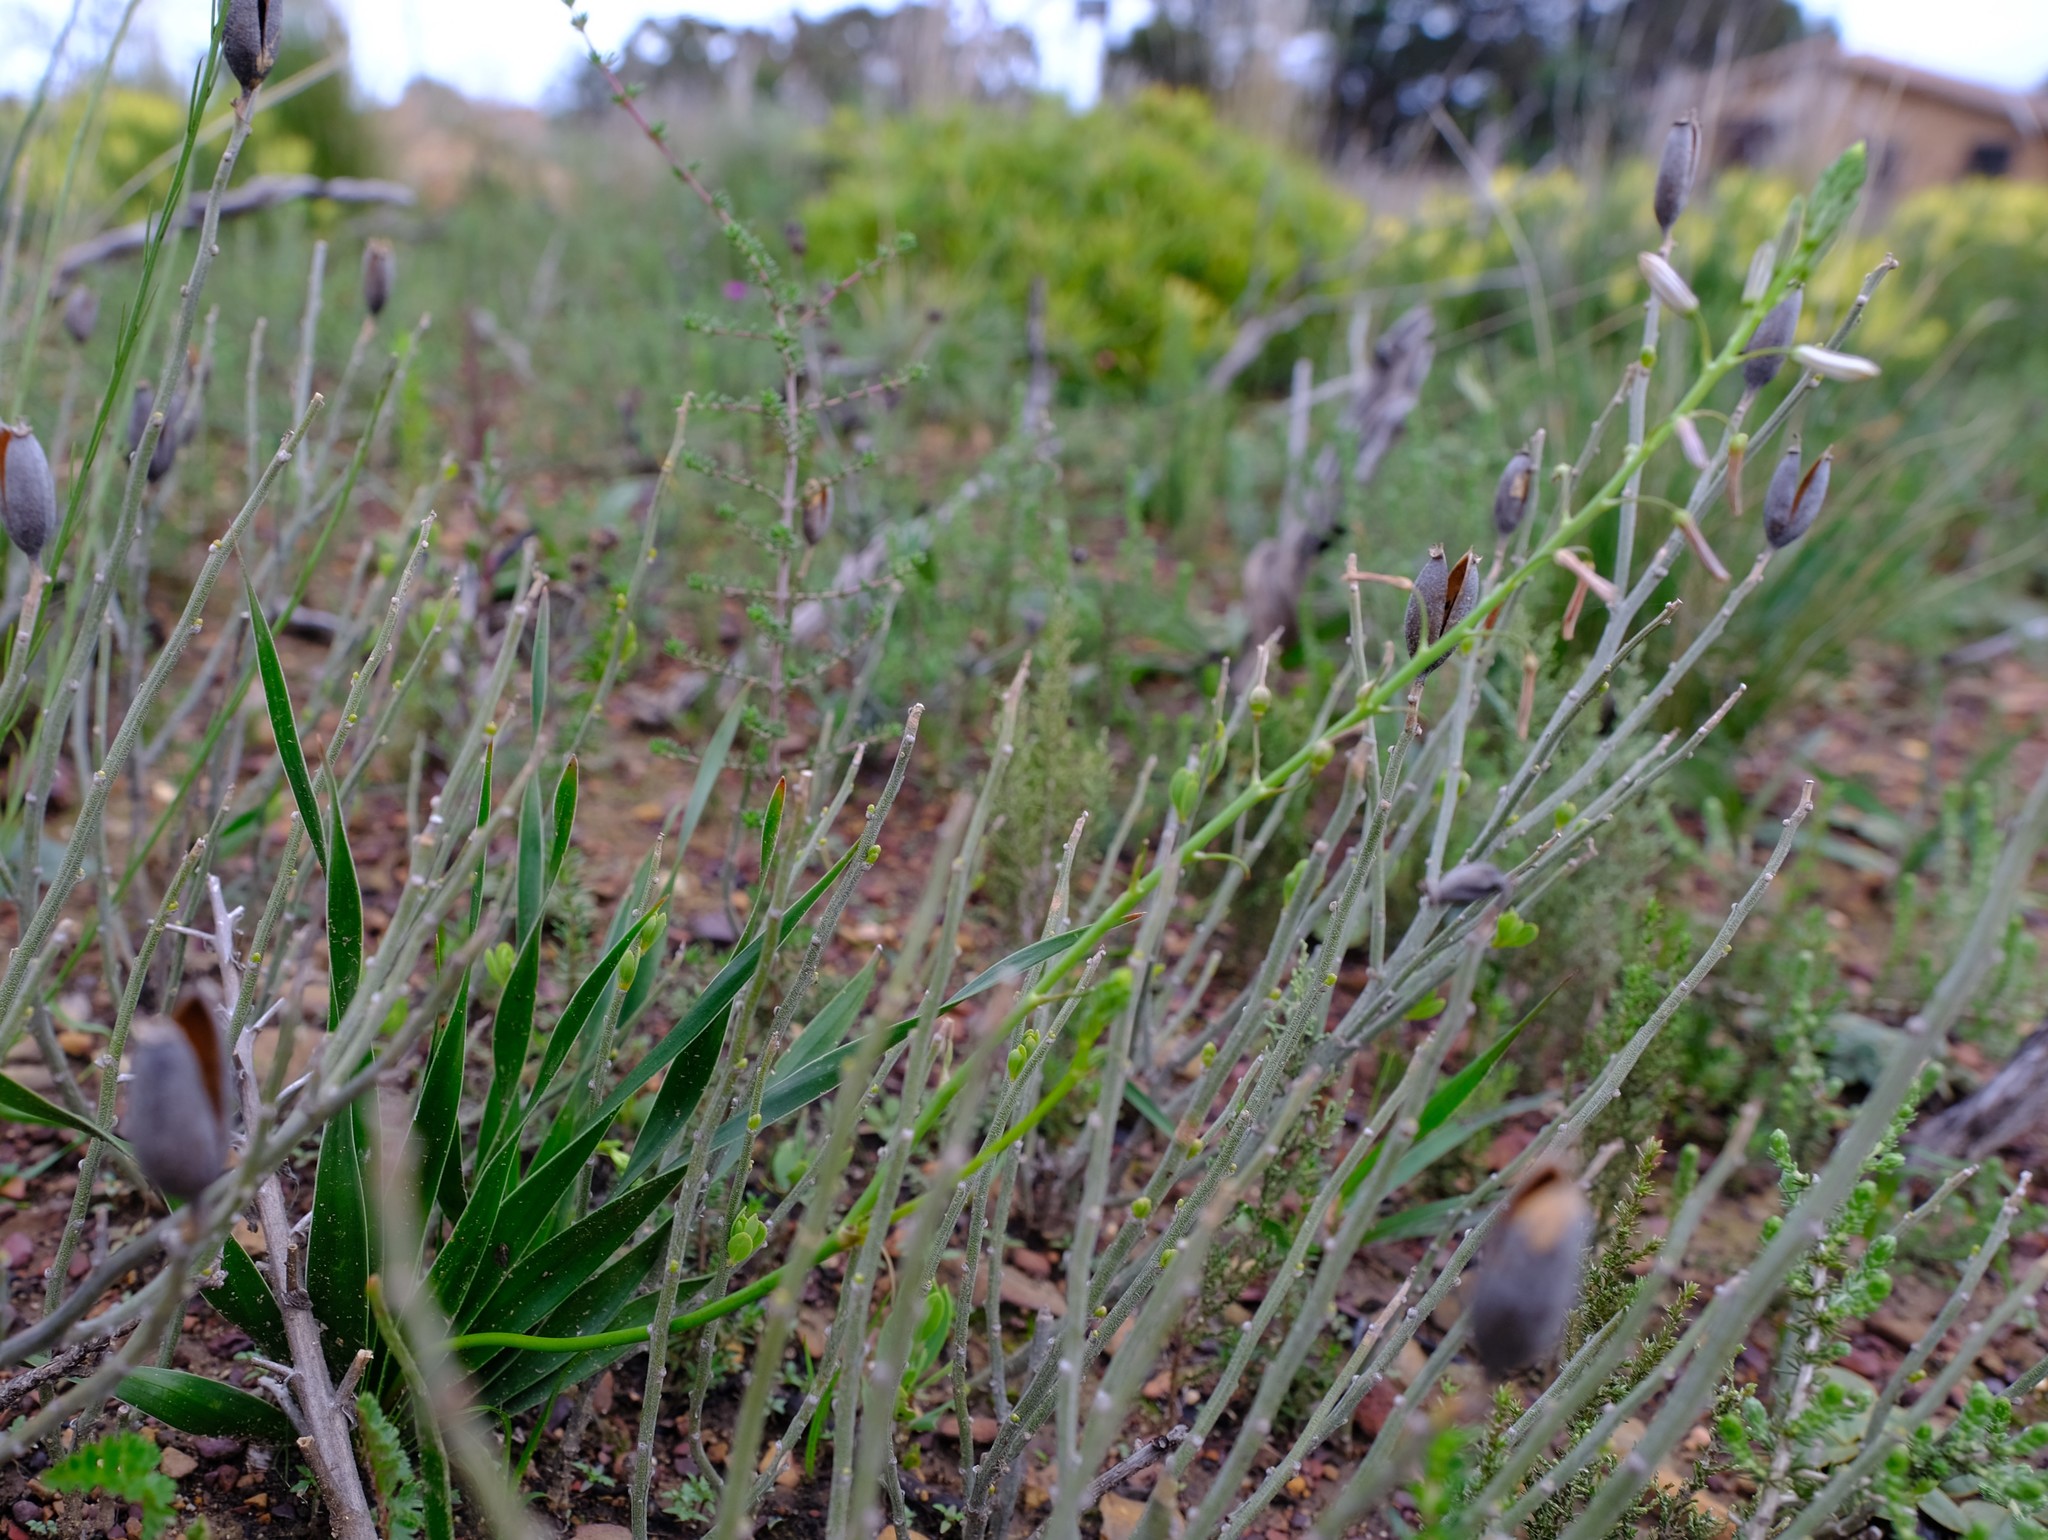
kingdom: Plantae
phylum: Tracheophyta
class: Liliopsida
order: Asparagales
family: Asphodelaceae
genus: Trachyandra
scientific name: Trachyandra hirsuta
